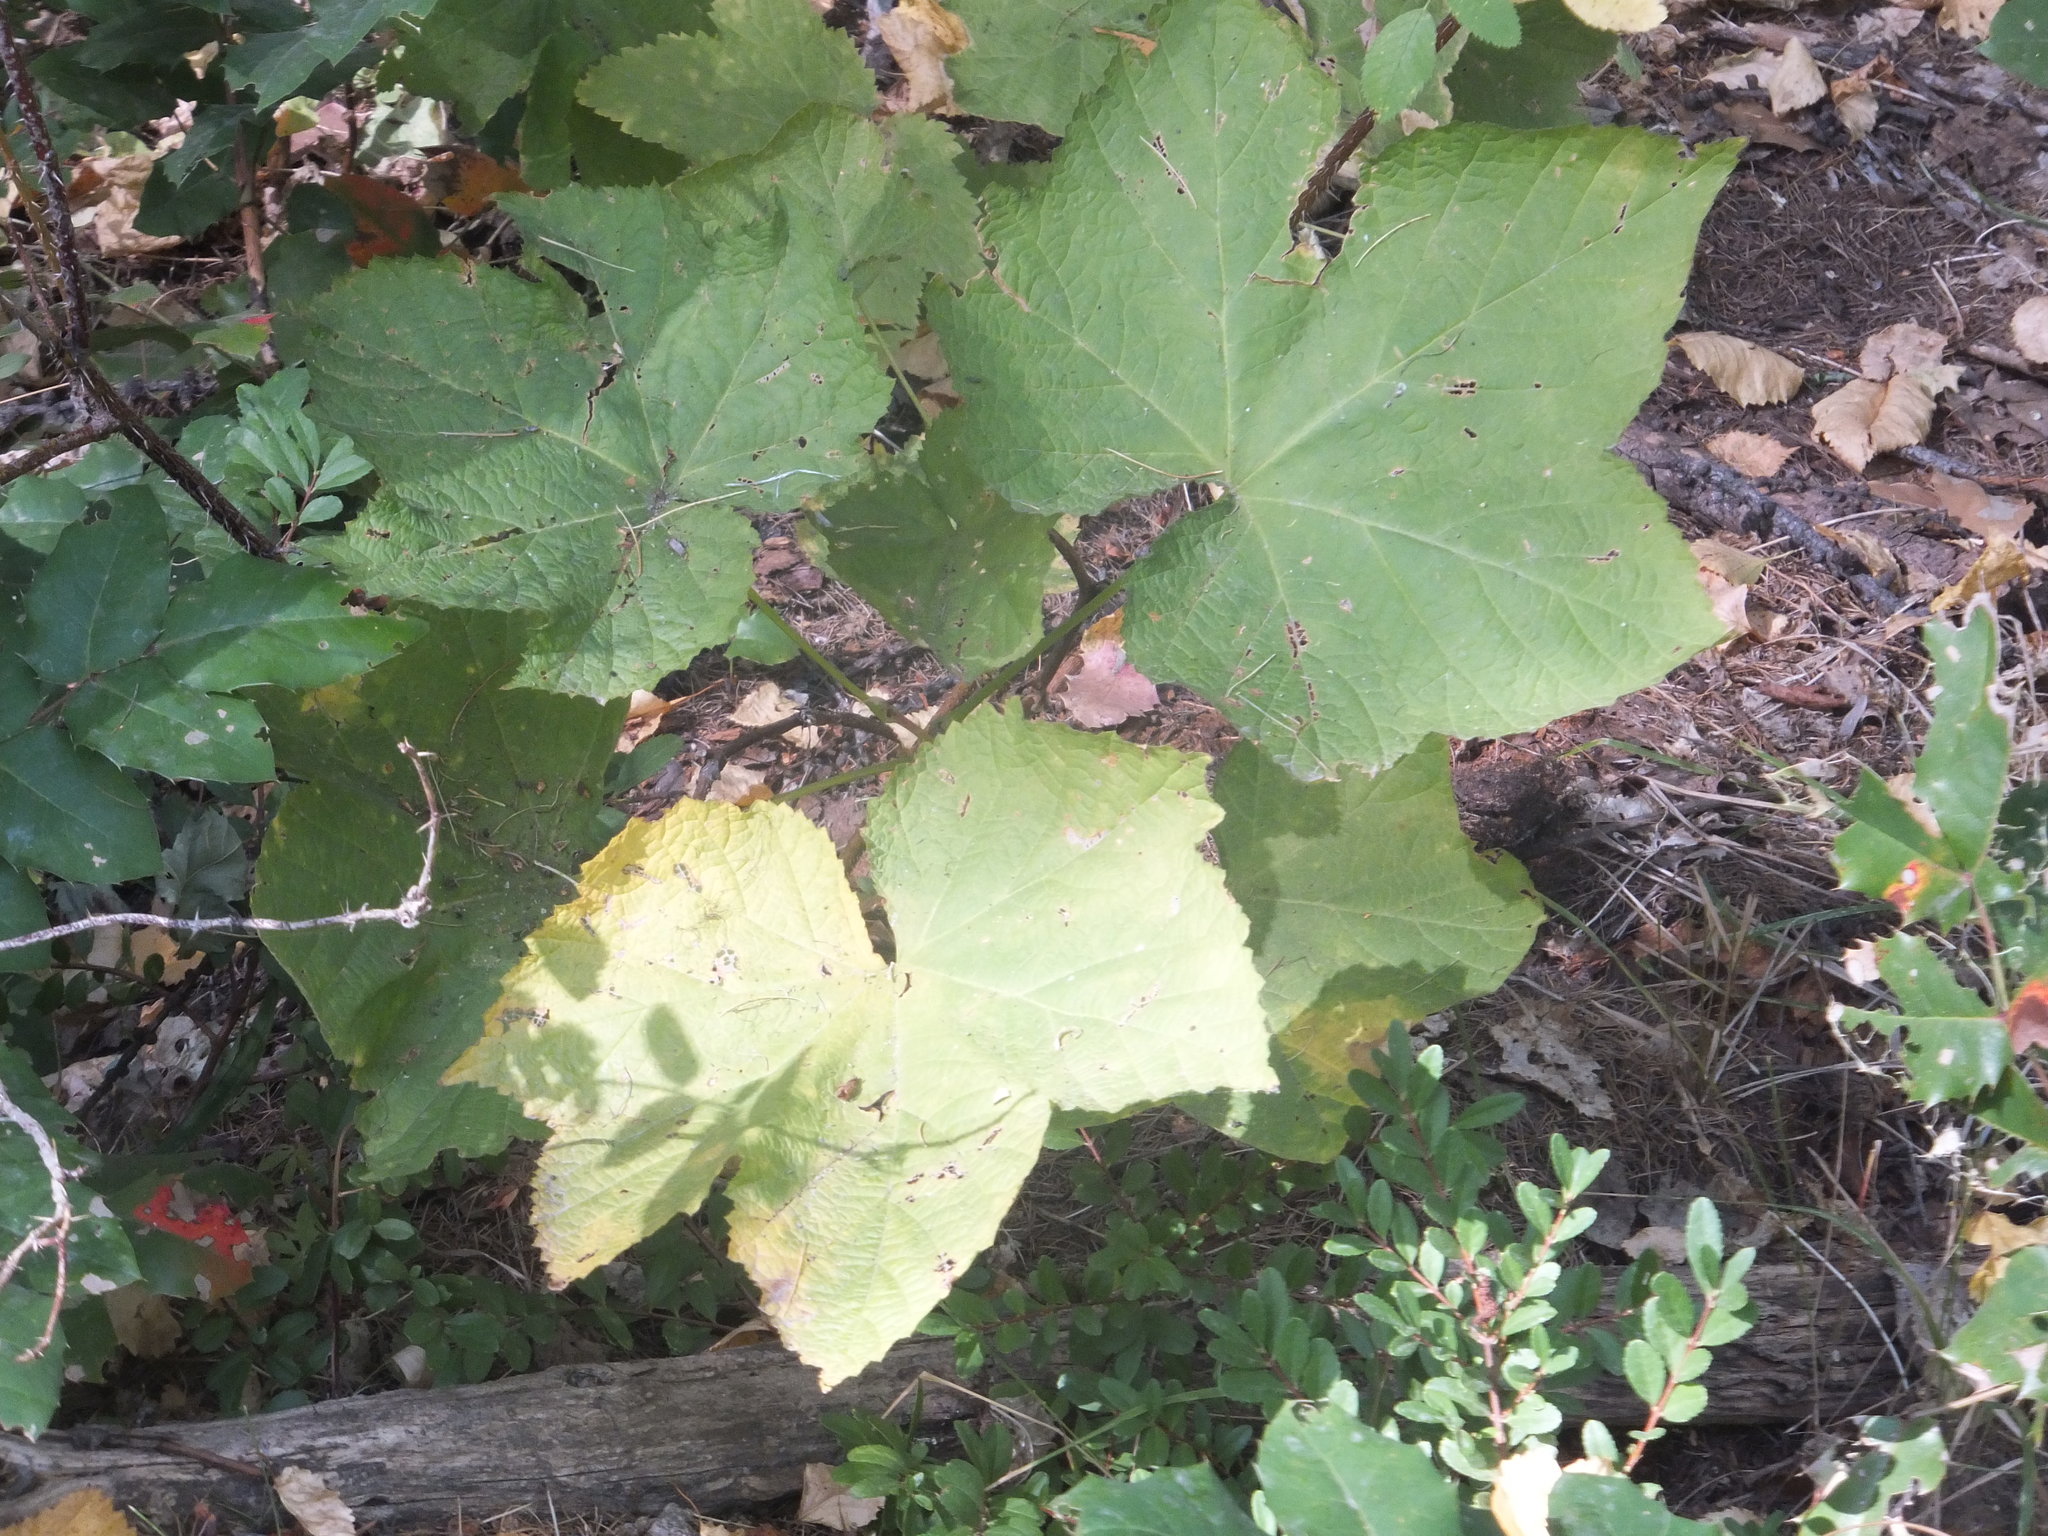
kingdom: Plantae
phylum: Tracheophyta
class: Magnoliopsida
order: Rosales
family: Rosaceae
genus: Rubus
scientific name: Rubus parviflorus
